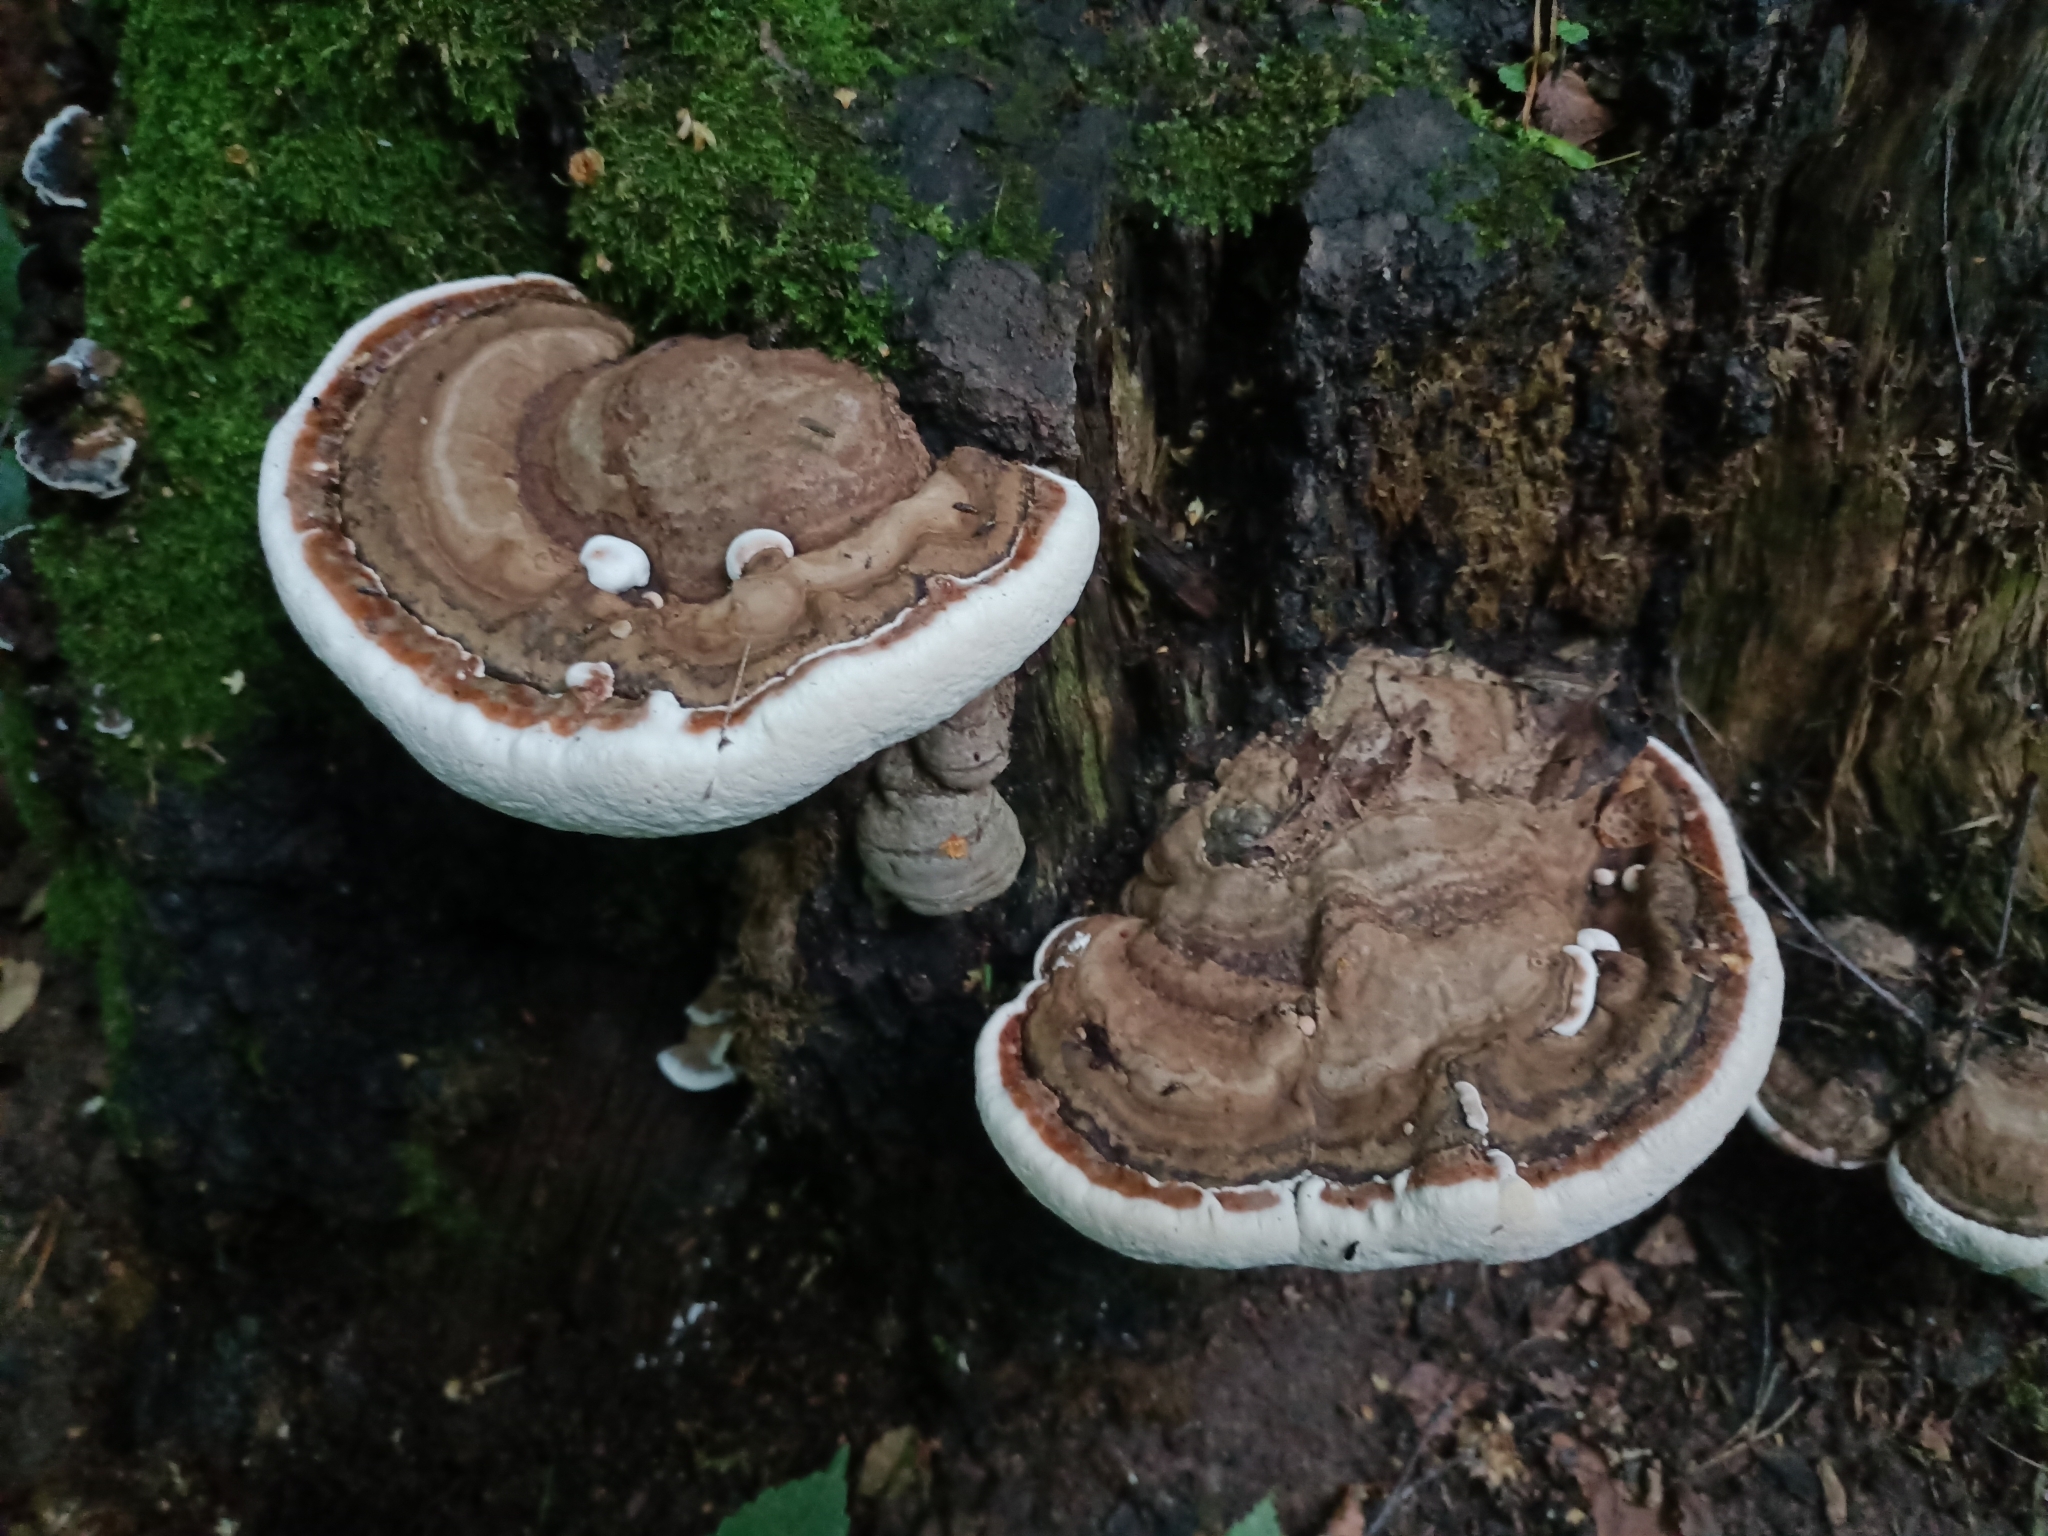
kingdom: Fungi
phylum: Basidiomycota
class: Agaricomycetes
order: Polyporales
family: Polyporaceae
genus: Ganoderma
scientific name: Ganoderma applanatum
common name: Artist's bracket
